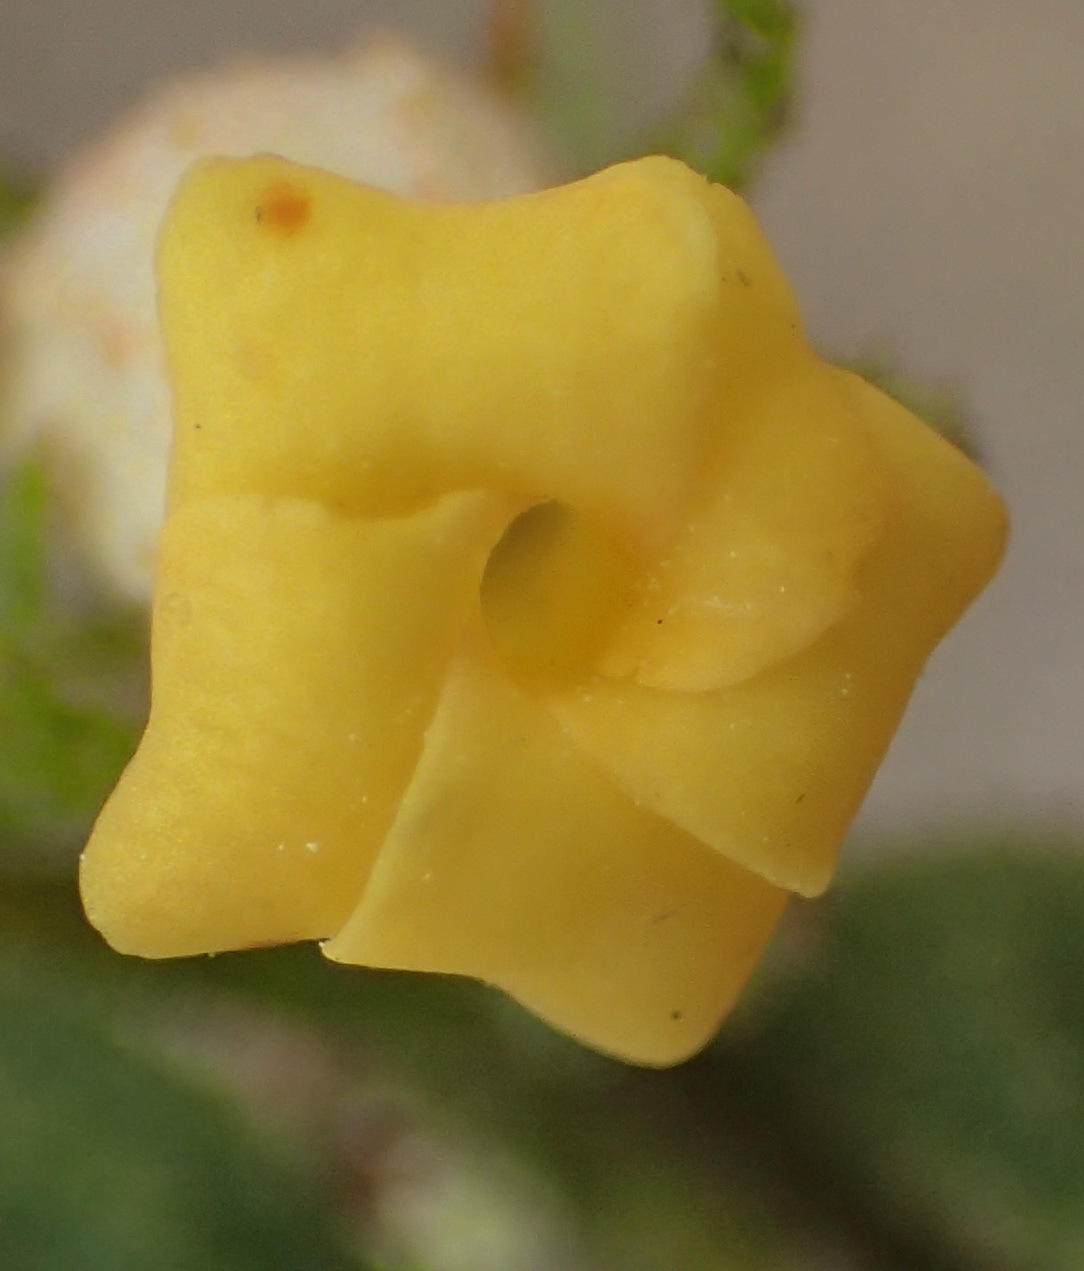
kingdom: Plantae
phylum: Tracheophyta
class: Magnoliopsida
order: Malvales
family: Malvaceae
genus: Hermannia
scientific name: Hermannia salviifolia
